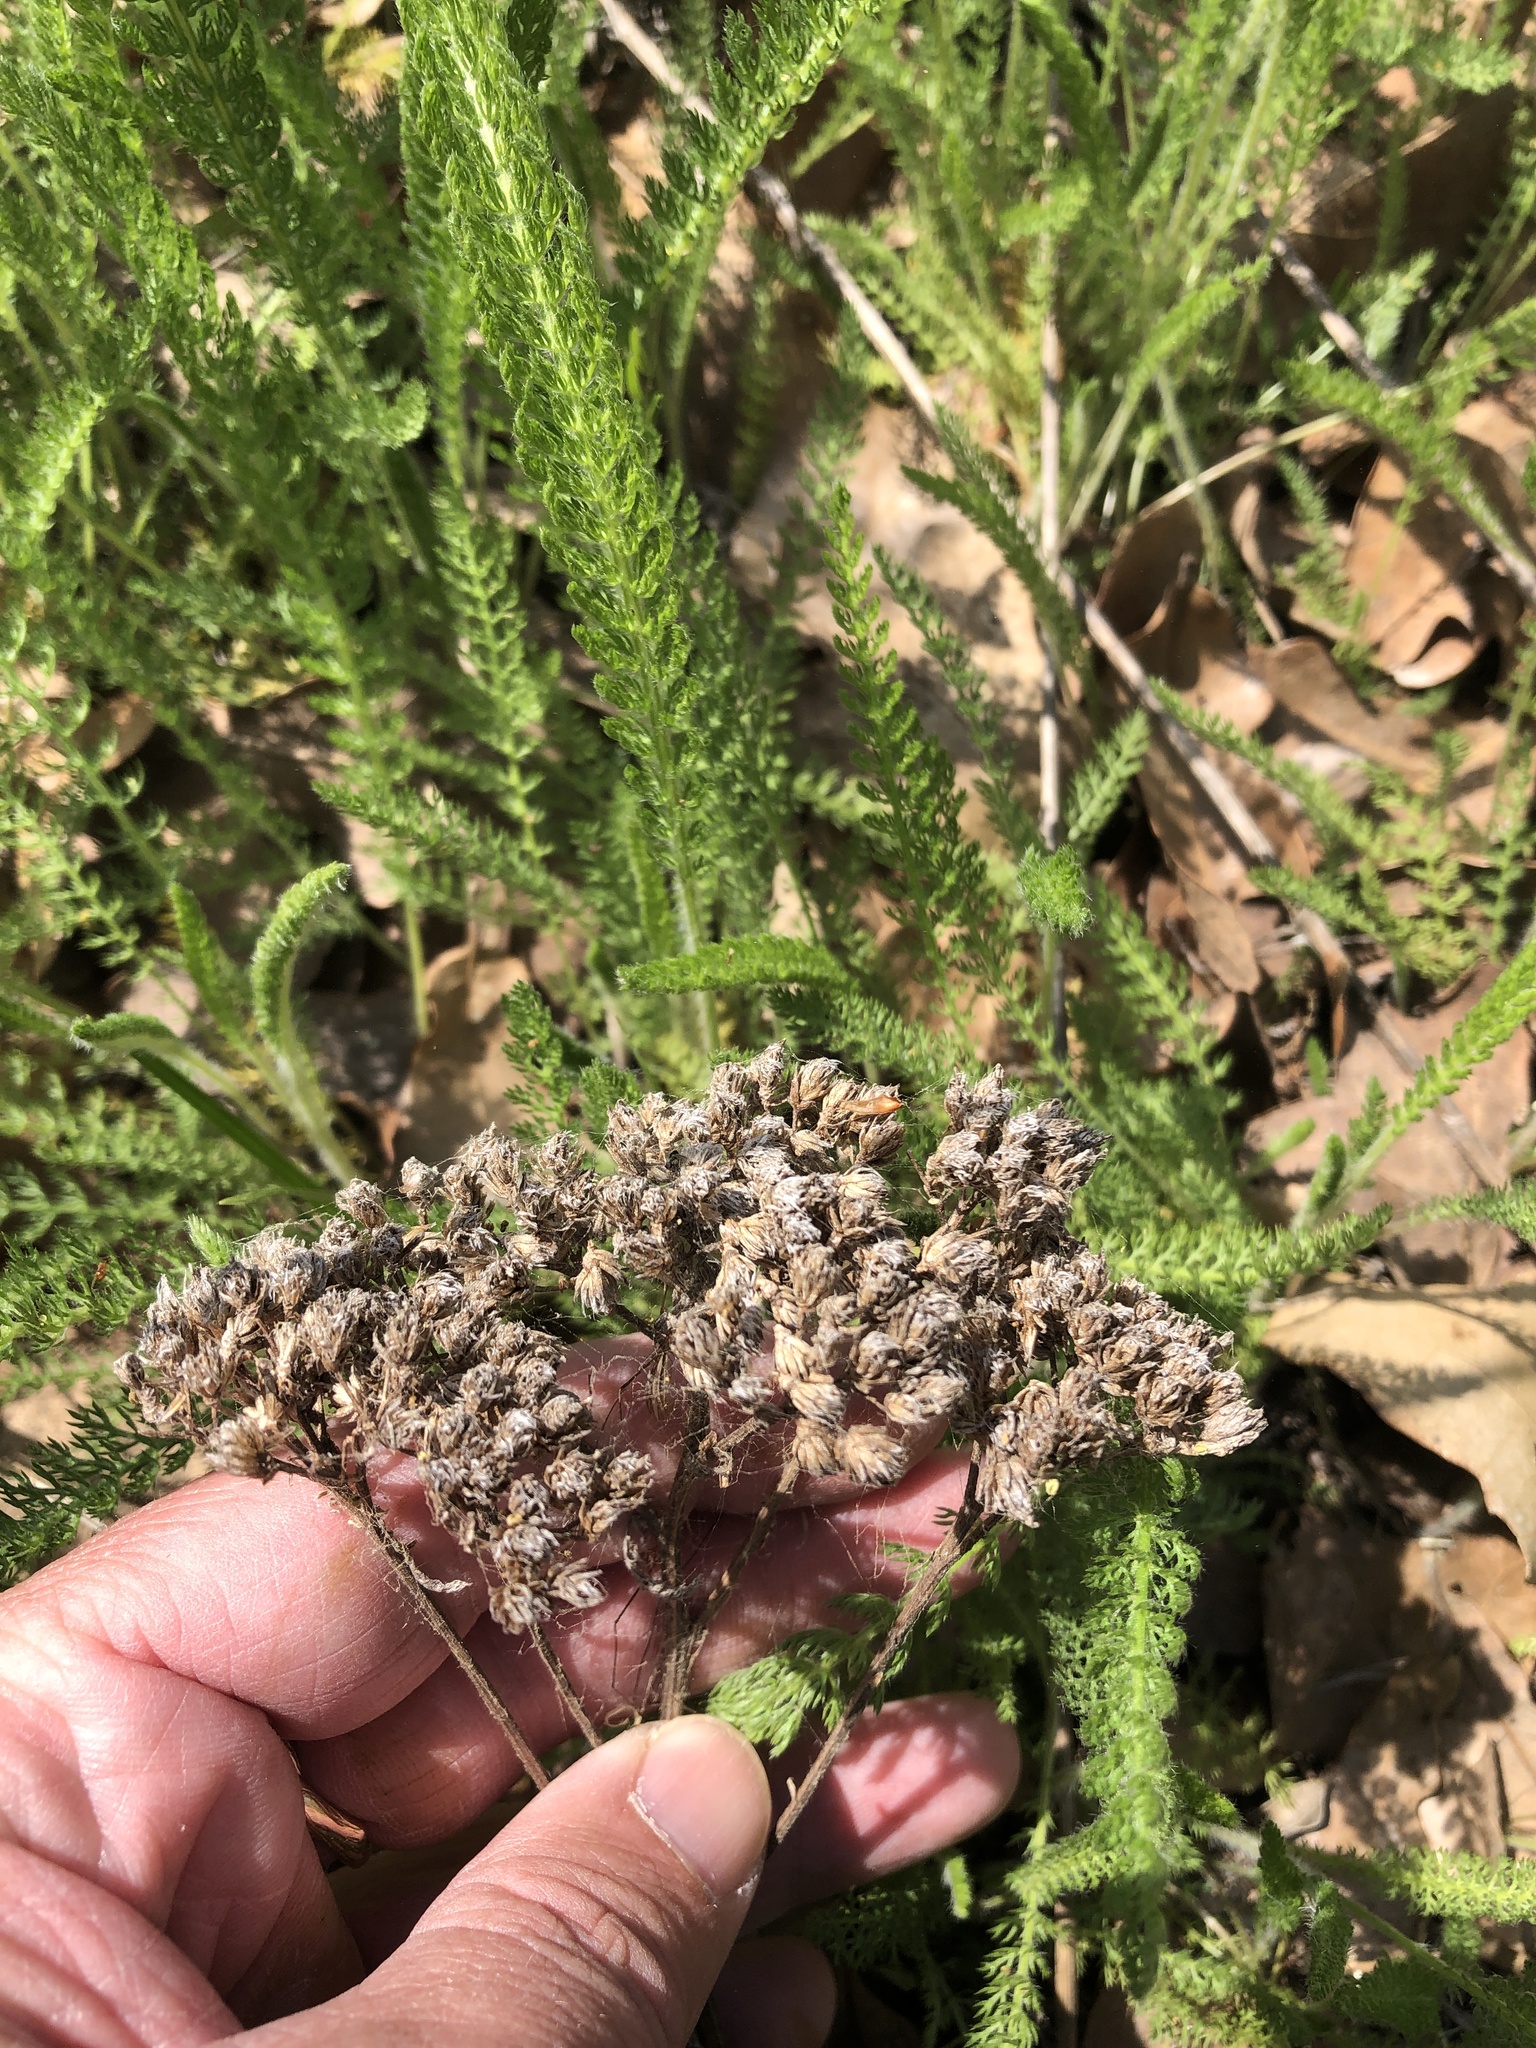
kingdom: Plantae
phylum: Tracheophyta
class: Magnoliopsida
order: Asterales
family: Asteraceae
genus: Achillea
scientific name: Achillea millefolium
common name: Yarrow
